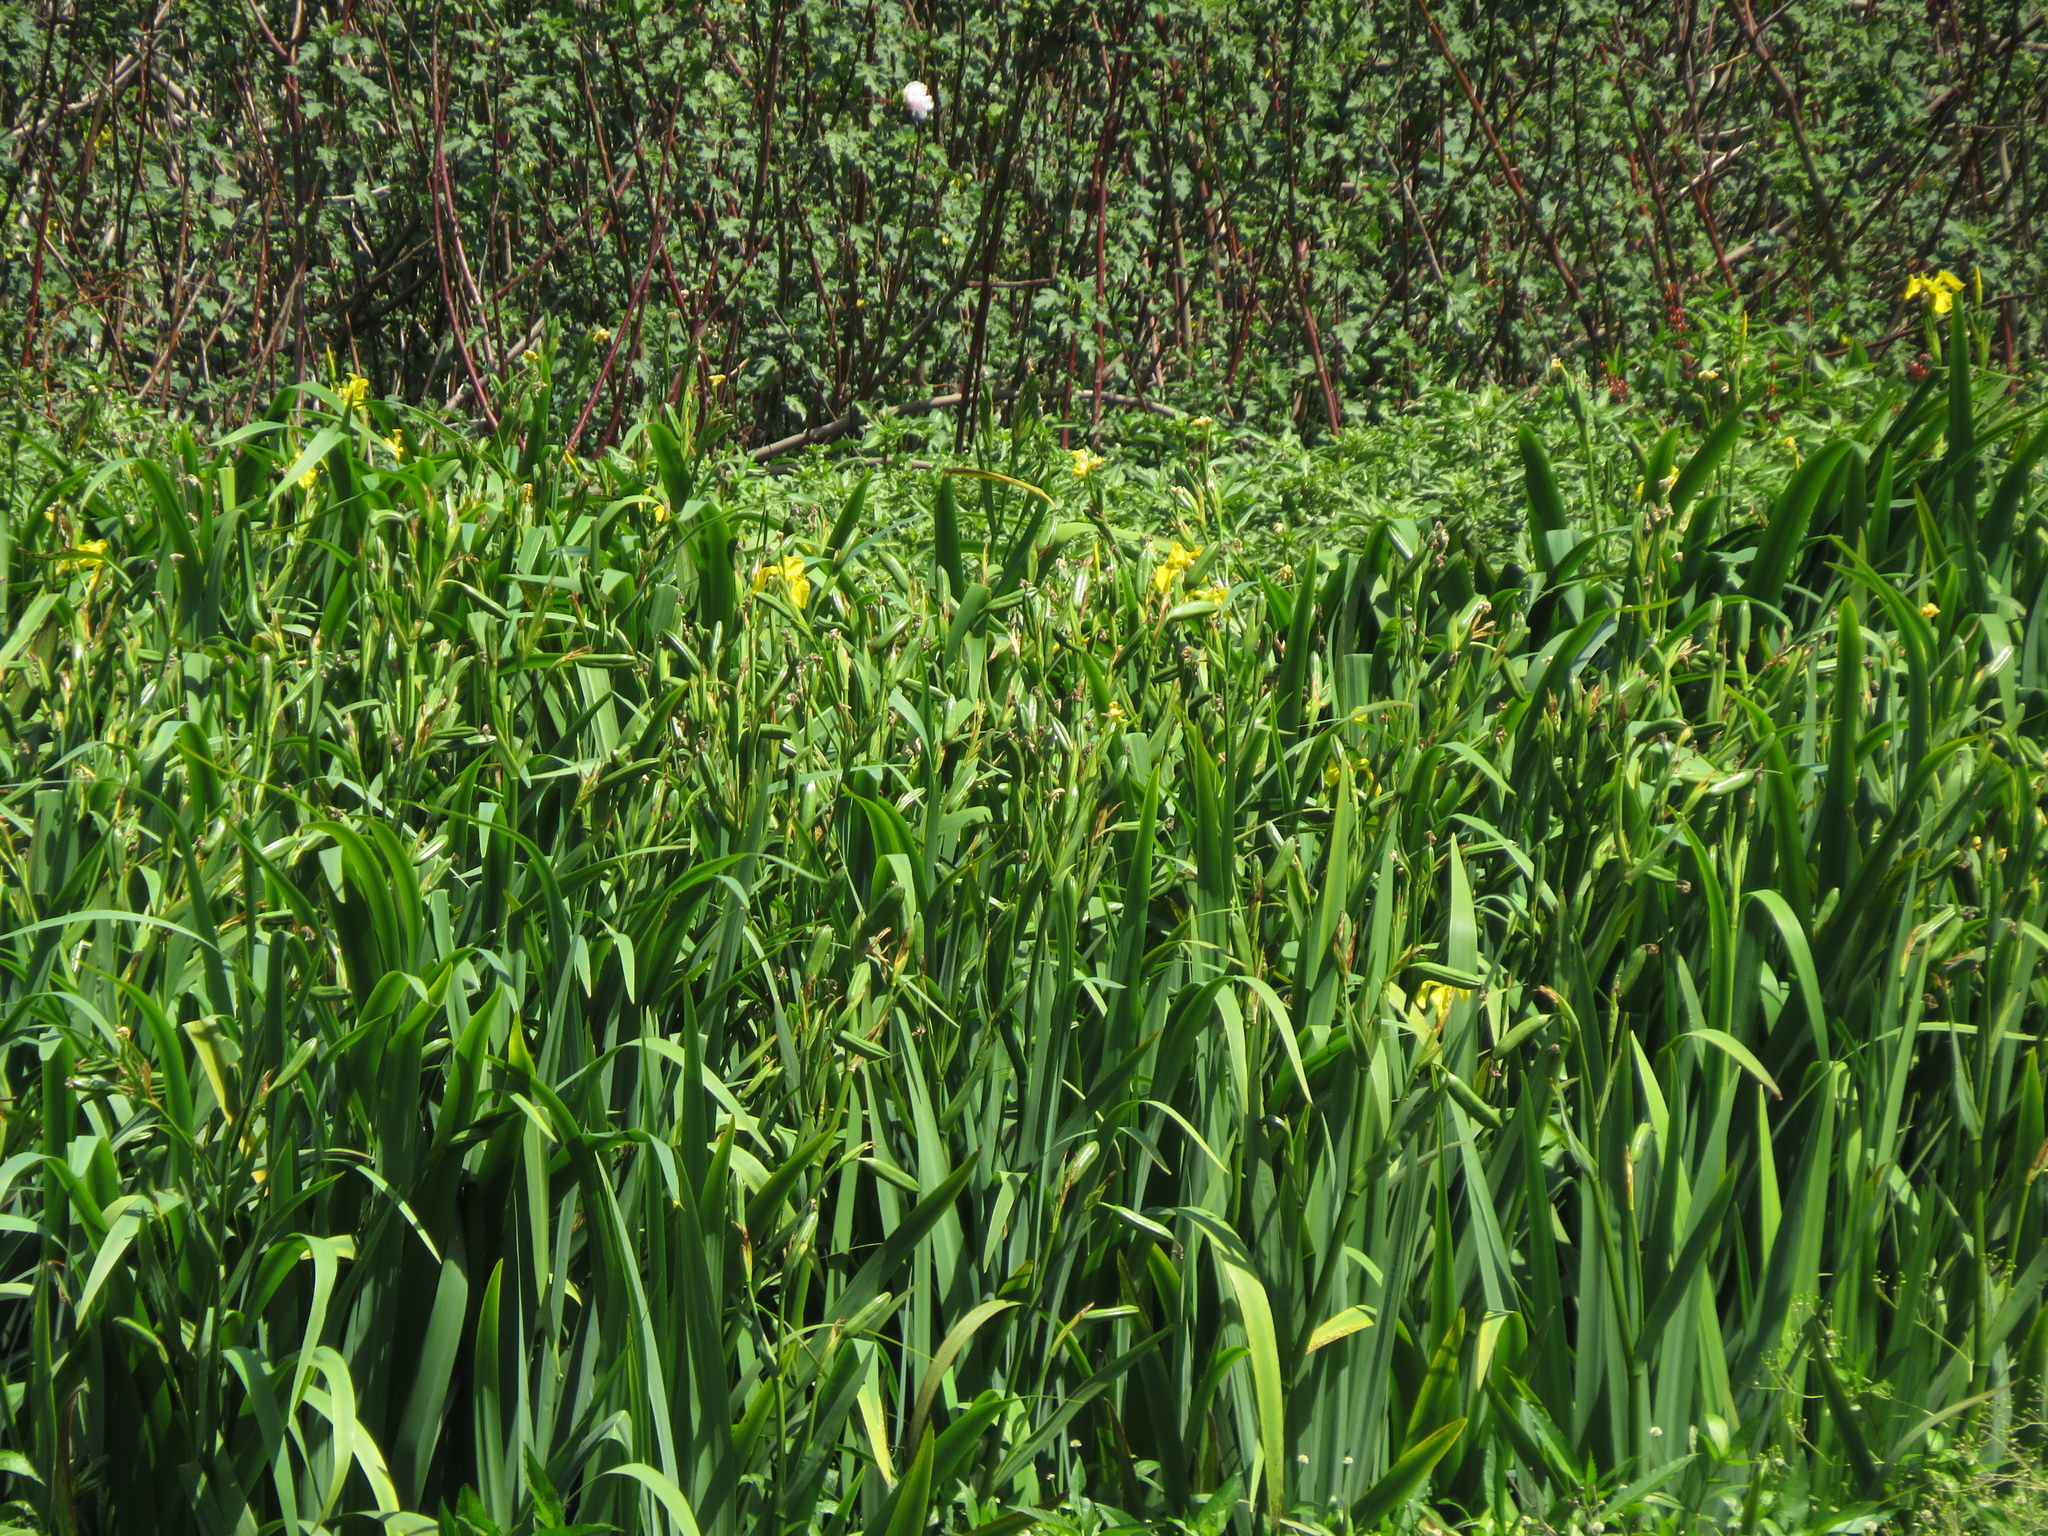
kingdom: Plantae
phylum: Tracheophyta
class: Liliopsida
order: Asparagales
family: Iridaceae
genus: Iris
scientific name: Iris pseudacorus
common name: Yellow flag
